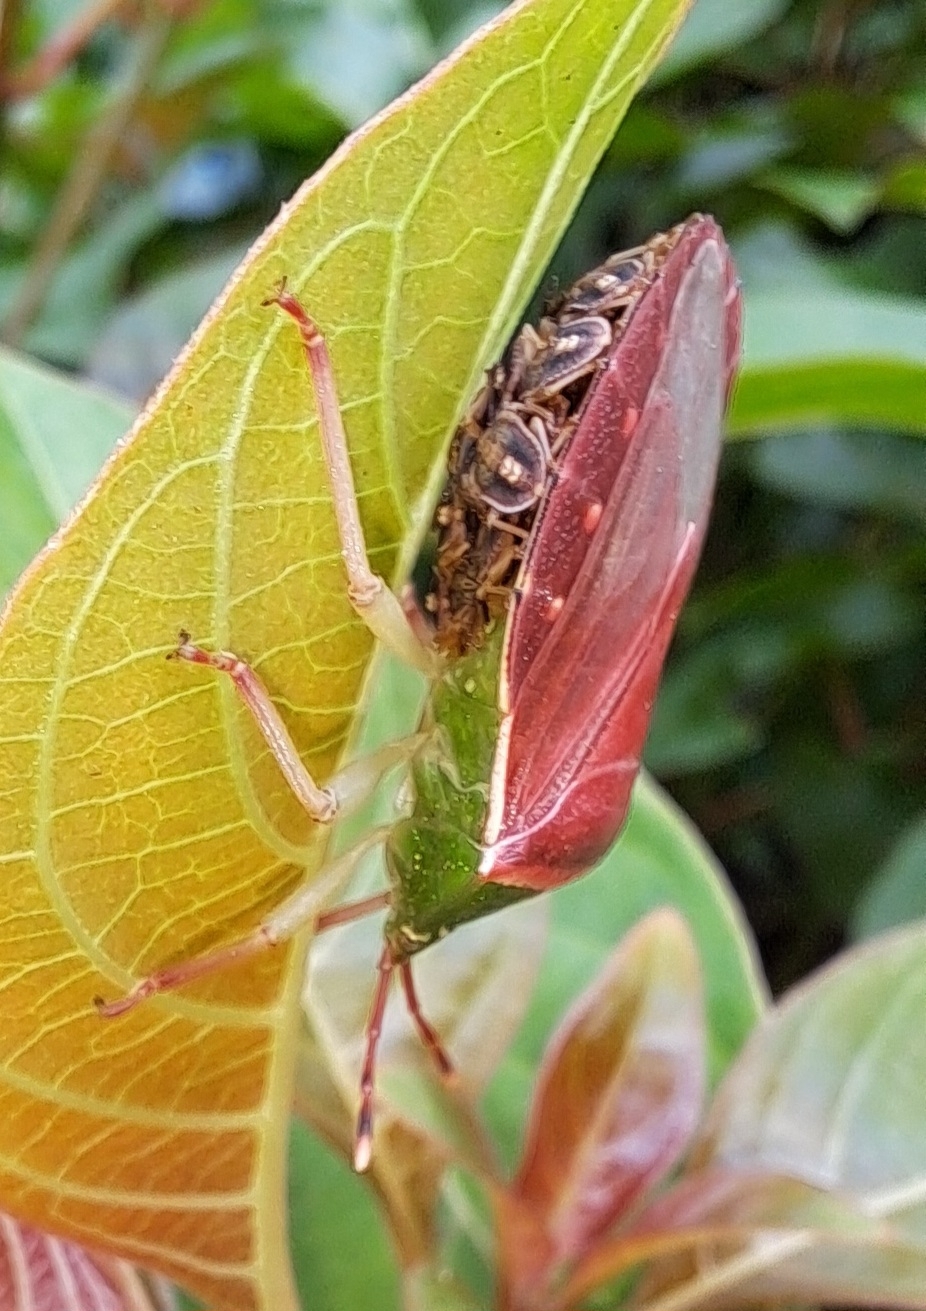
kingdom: Animalia
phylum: Arthropoda
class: Insecta
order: Hemiptera
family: Tessaratomidae
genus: Enada
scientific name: Enada rosea
